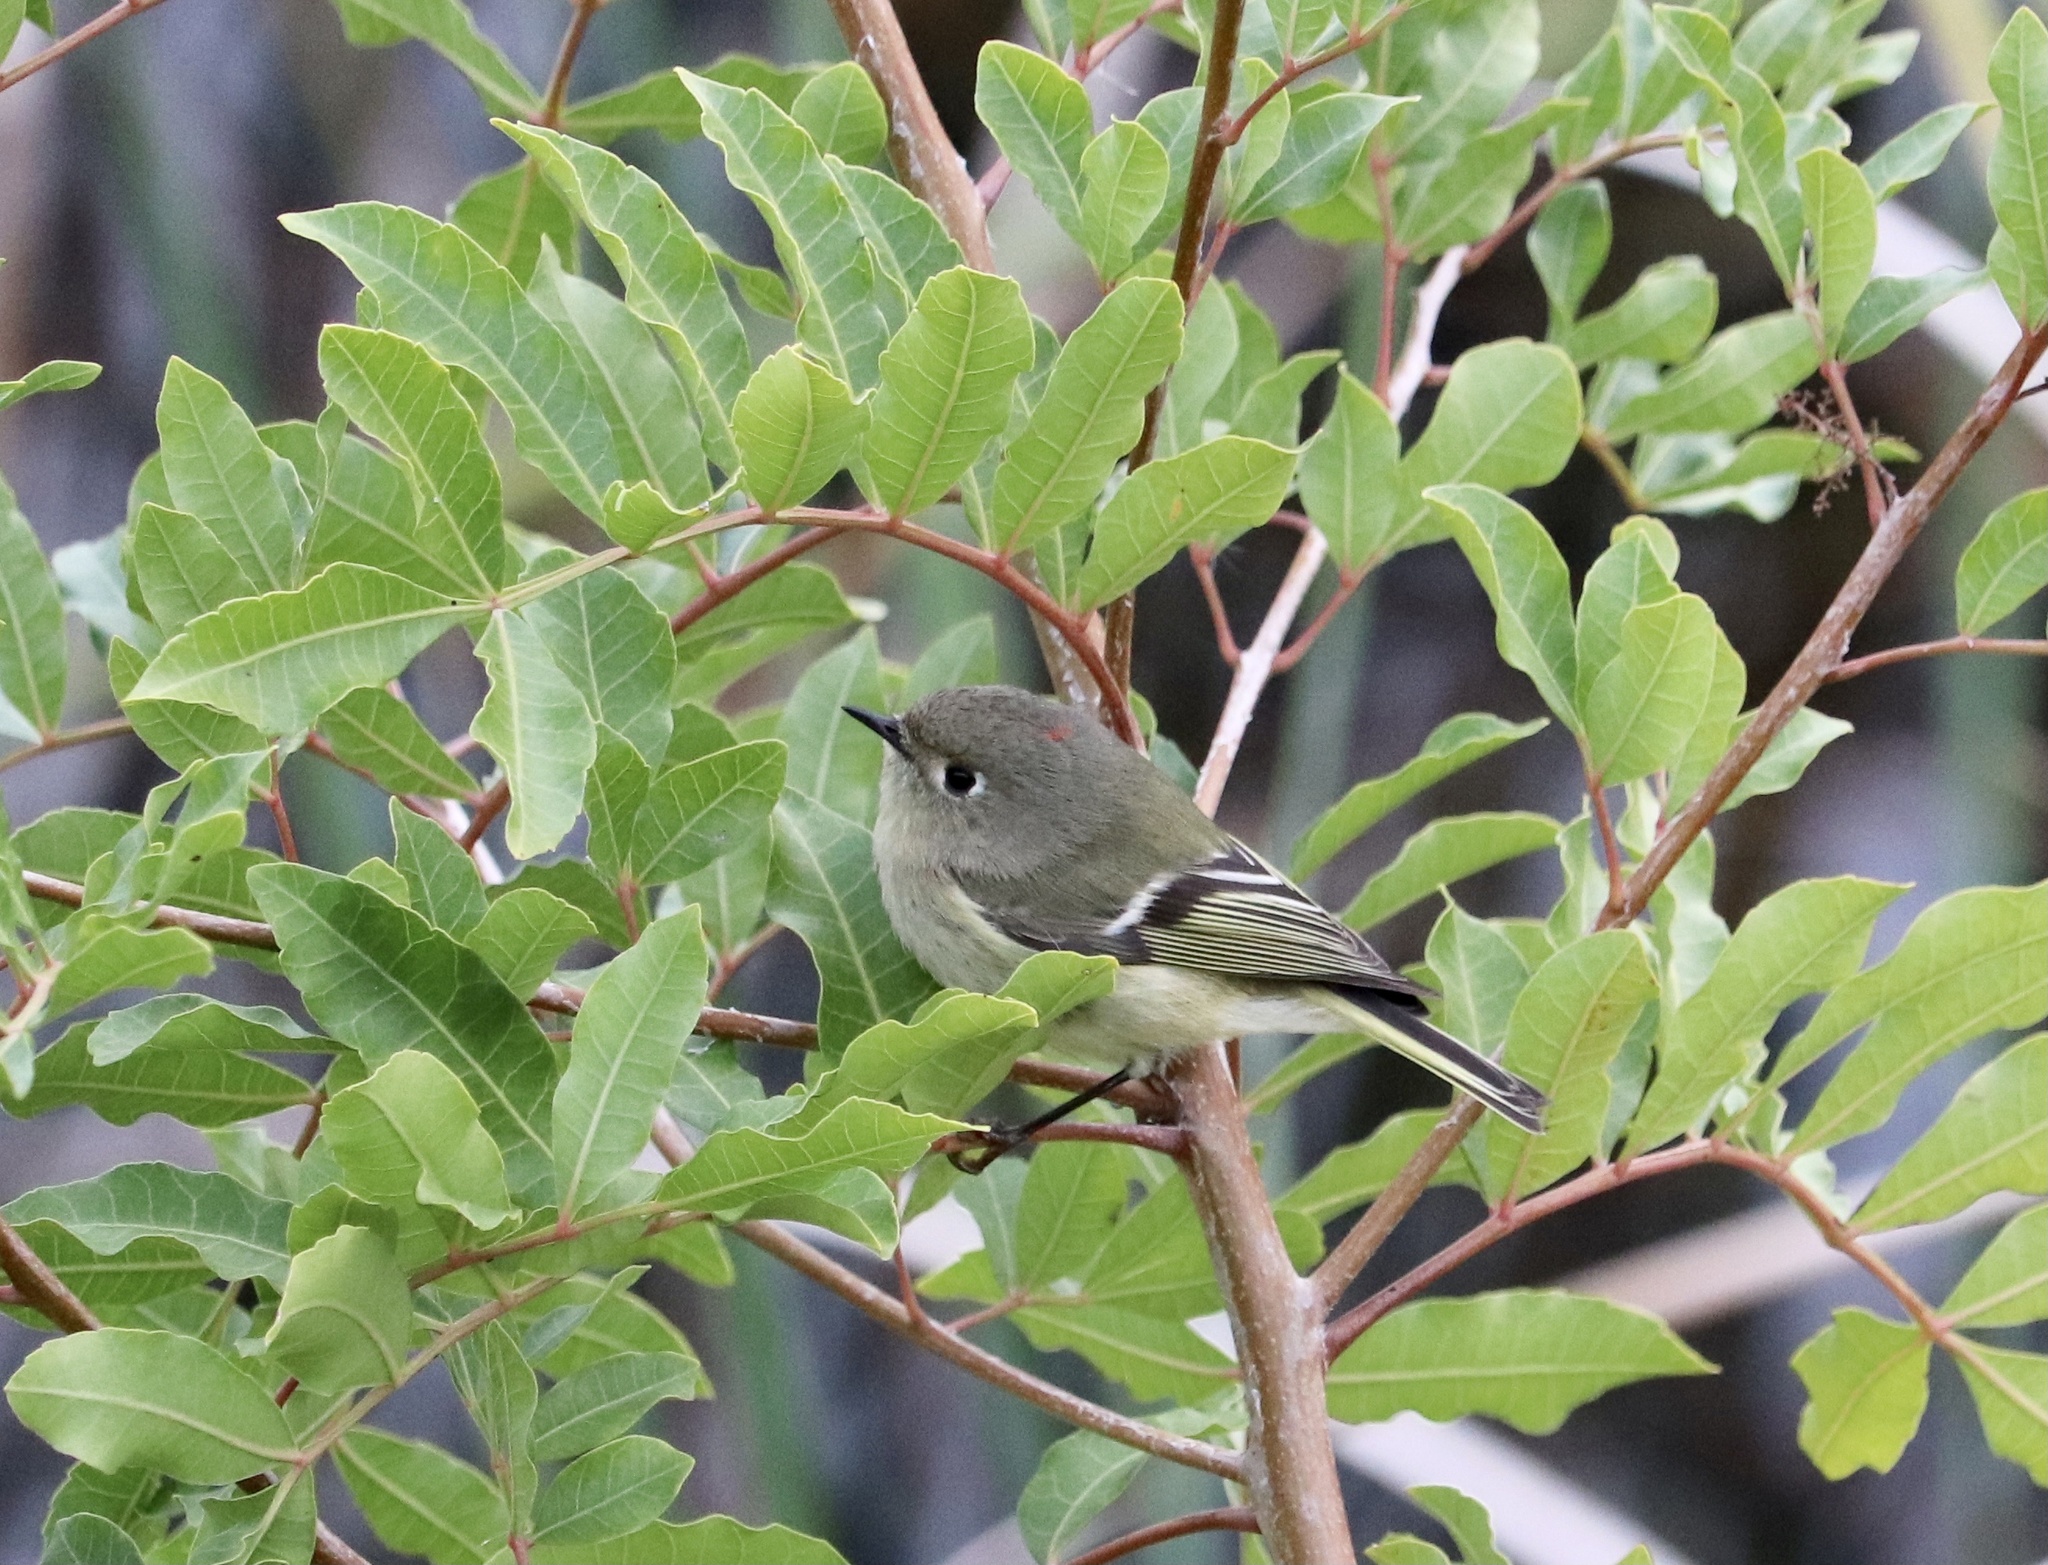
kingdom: Animalia
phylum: Chordata
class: Aves
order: Passeriformes
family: Regulidae
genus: Regulus
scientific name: Regulus calendula
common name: Ruby-crowned kinglet
